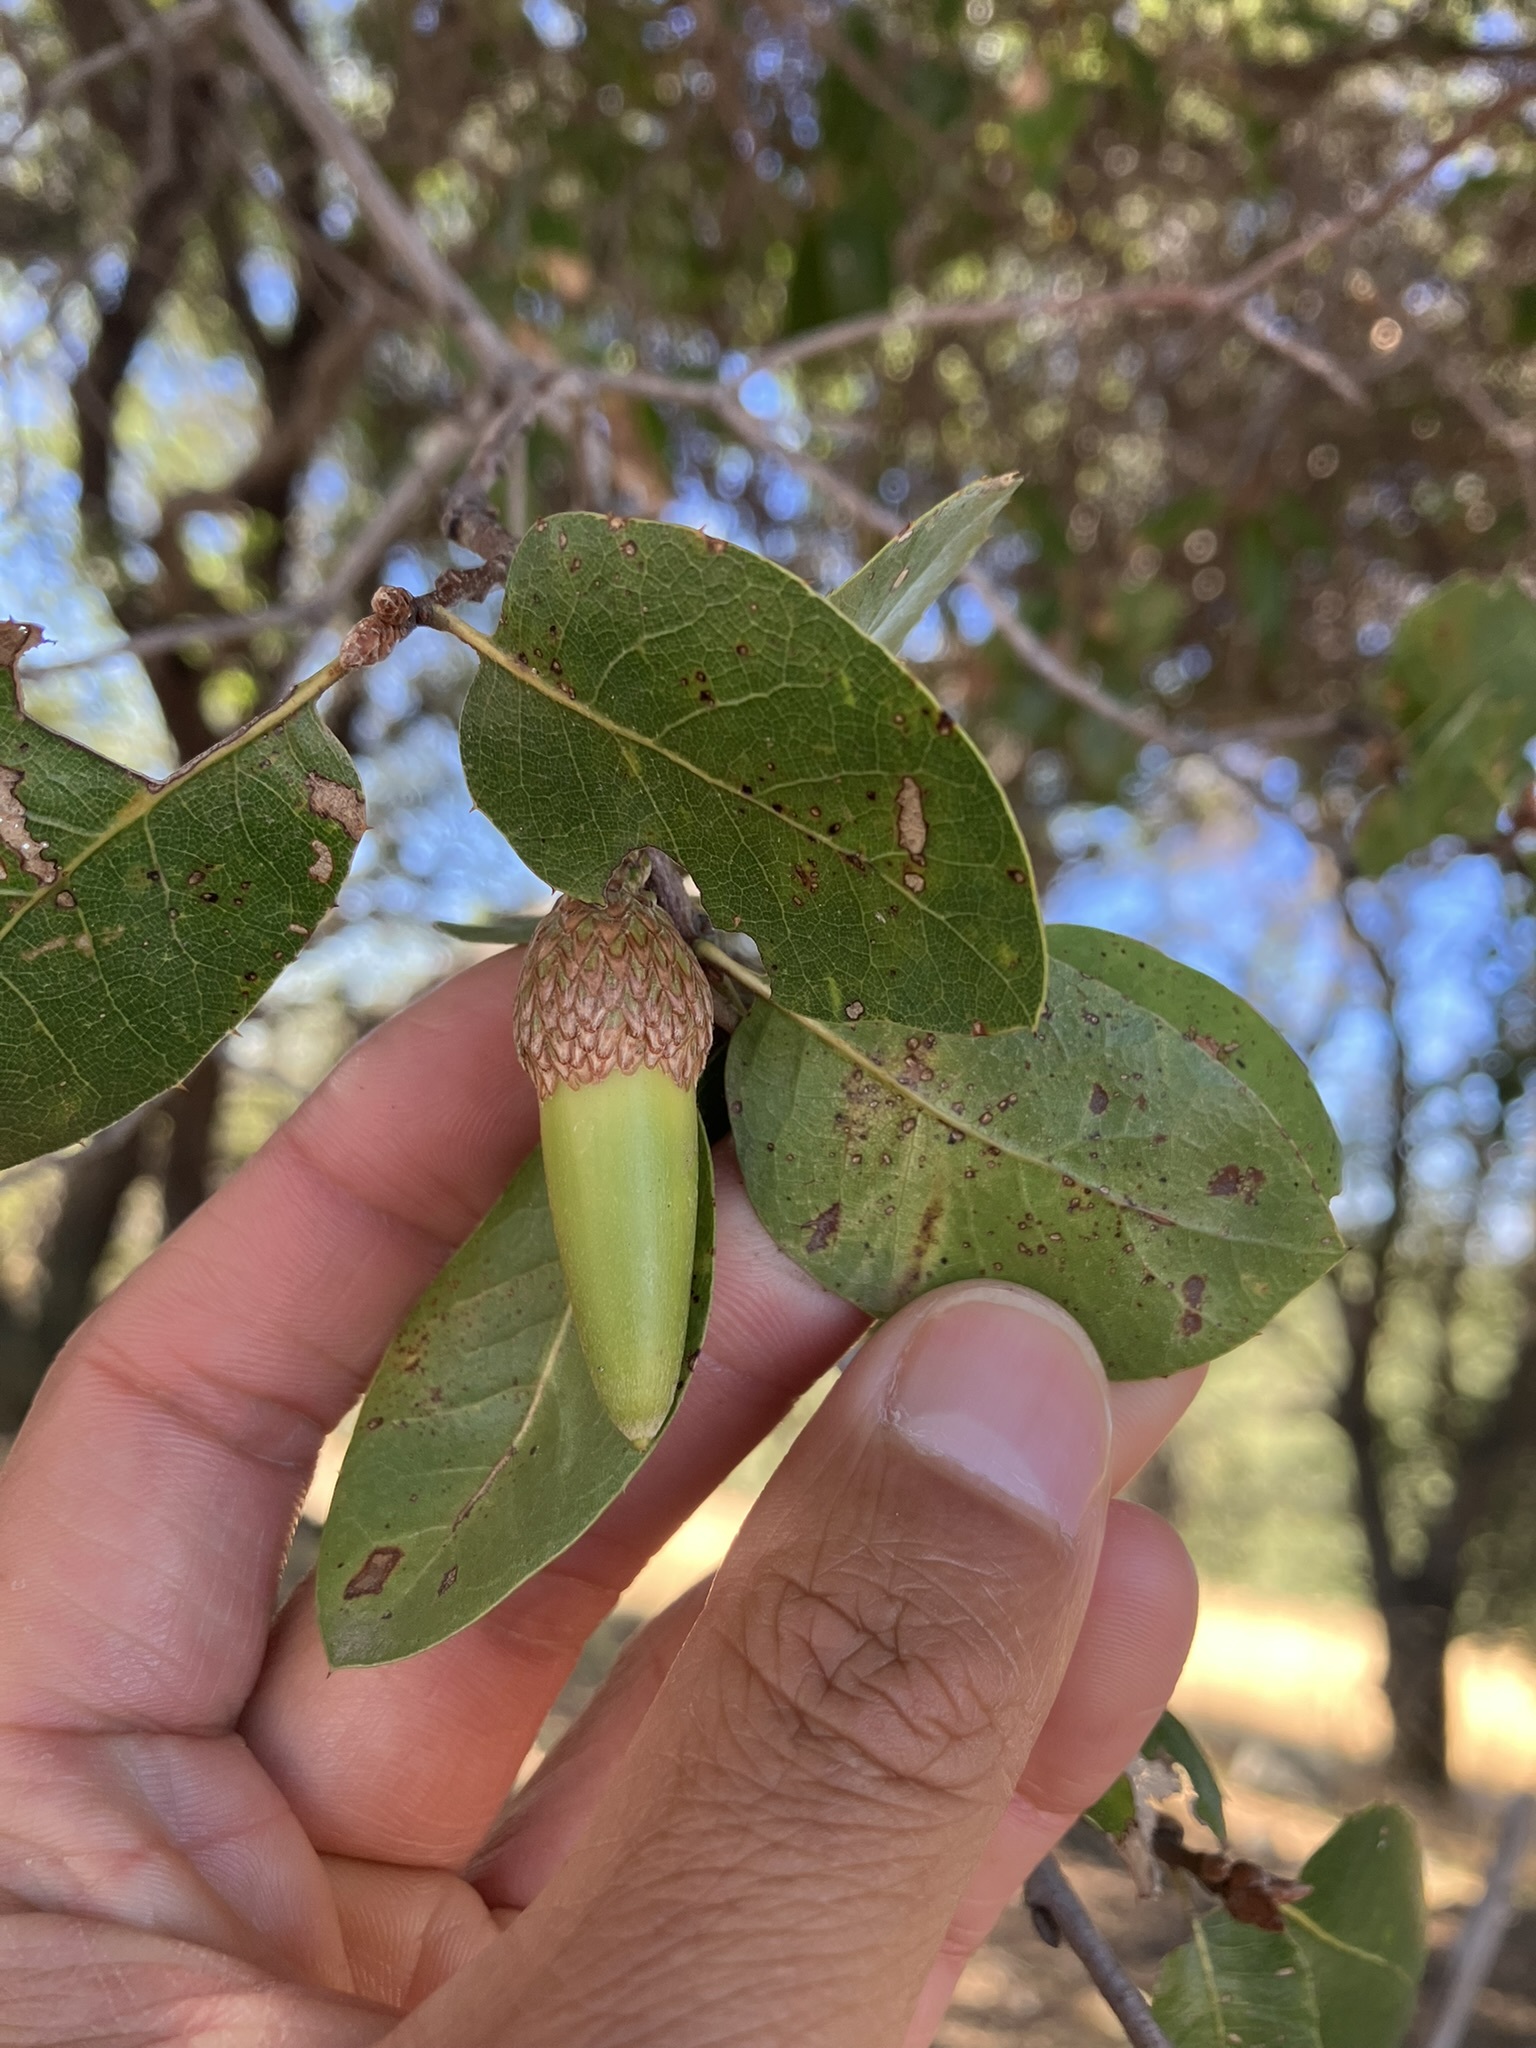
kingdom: Plantae
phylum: Tracheophyta
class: Magnoliopsida
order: Fagales
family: Fagaceae
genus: Quercus
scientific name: Quercus wislizeni
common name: Interior live oak
